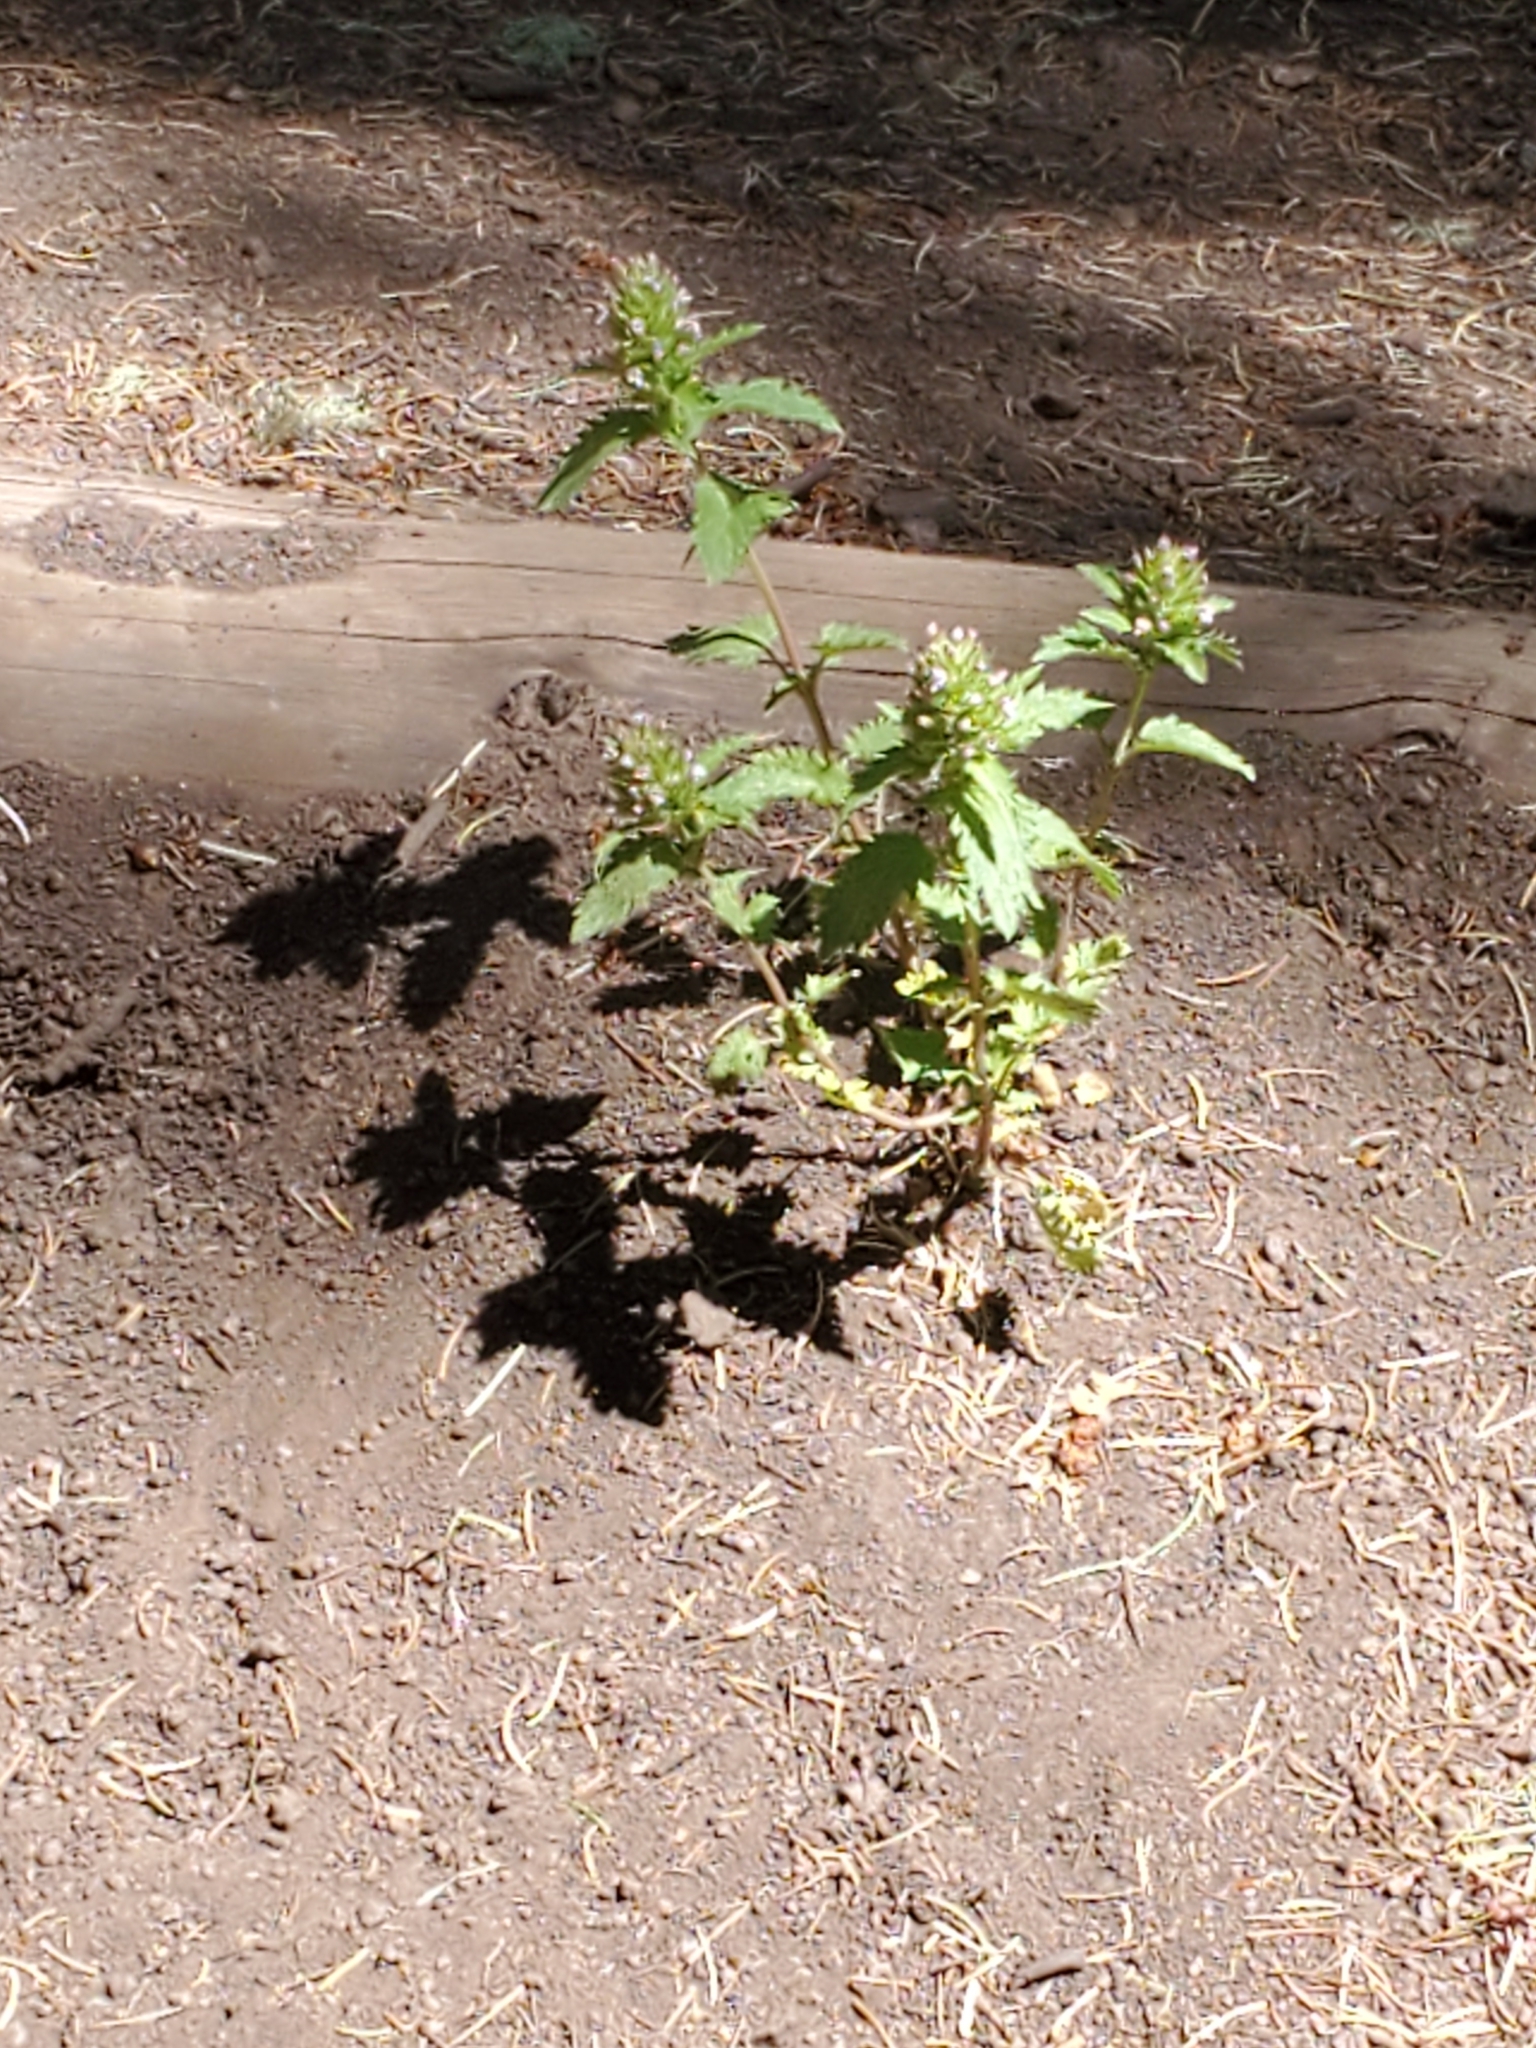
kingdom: Plantae
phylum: Tracheophyta
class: Magnoliopsida
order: Lamiales
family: Lamiaceae
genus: Dracocephalum
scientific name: Dracocephalum parviflorum
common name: American dragonhead
